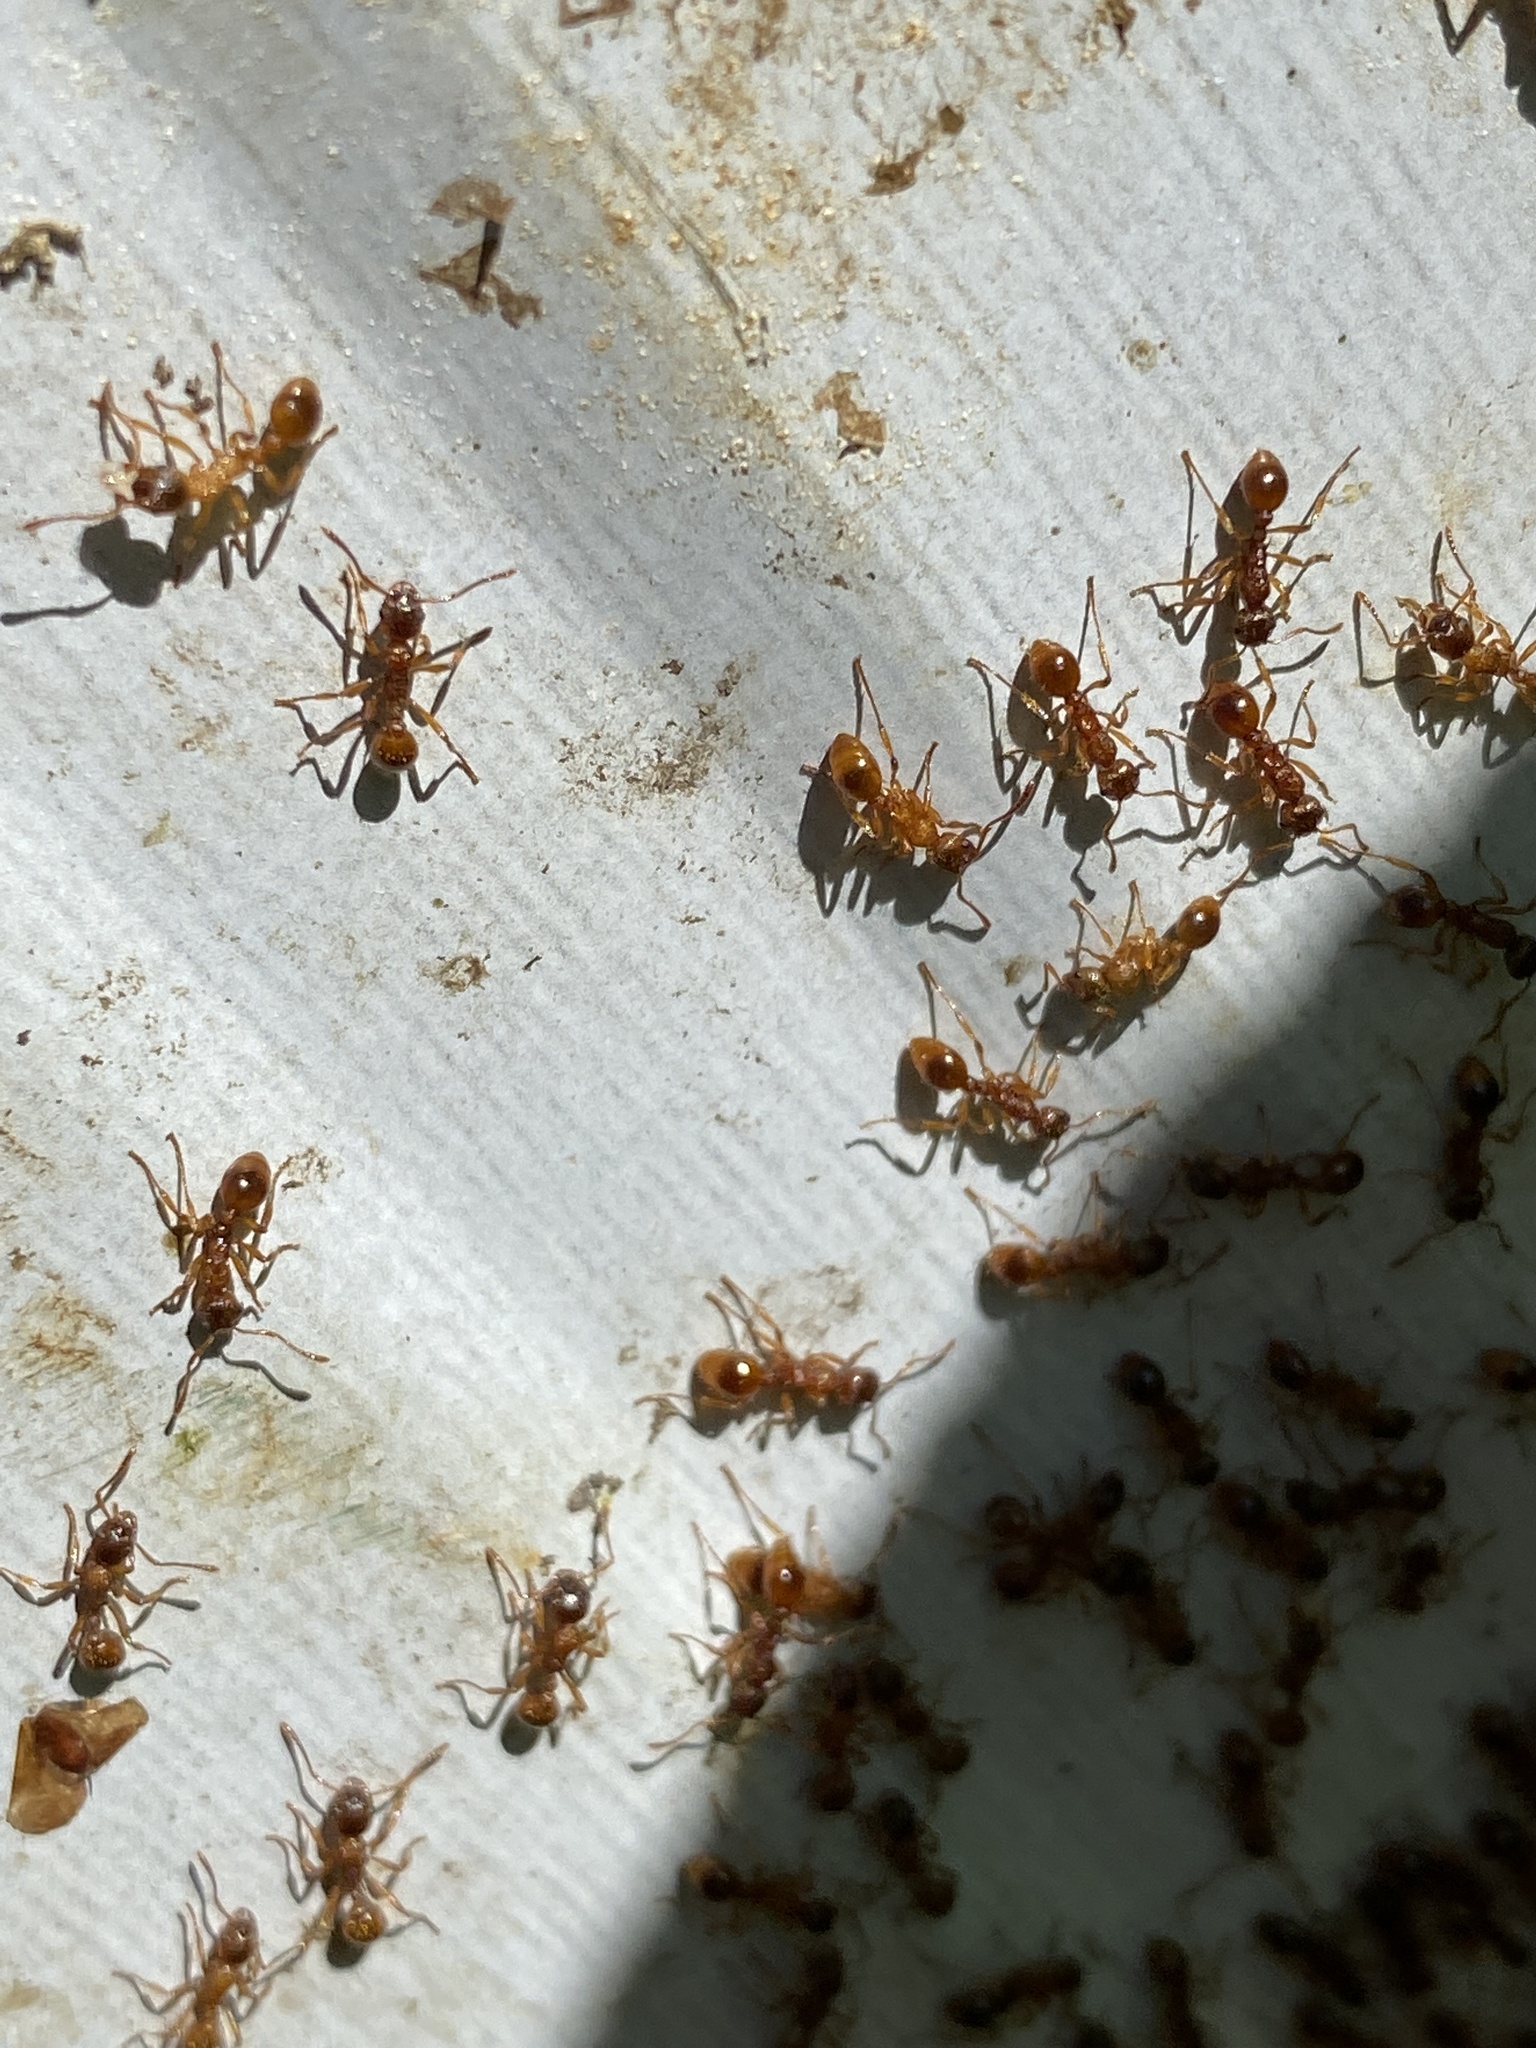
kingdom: Animalia
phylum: Arthropoda
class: Insecta
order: Hymenoptera
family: Formicidae
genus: Myrmica
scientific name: Myrmica rubra
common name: European fire ant
